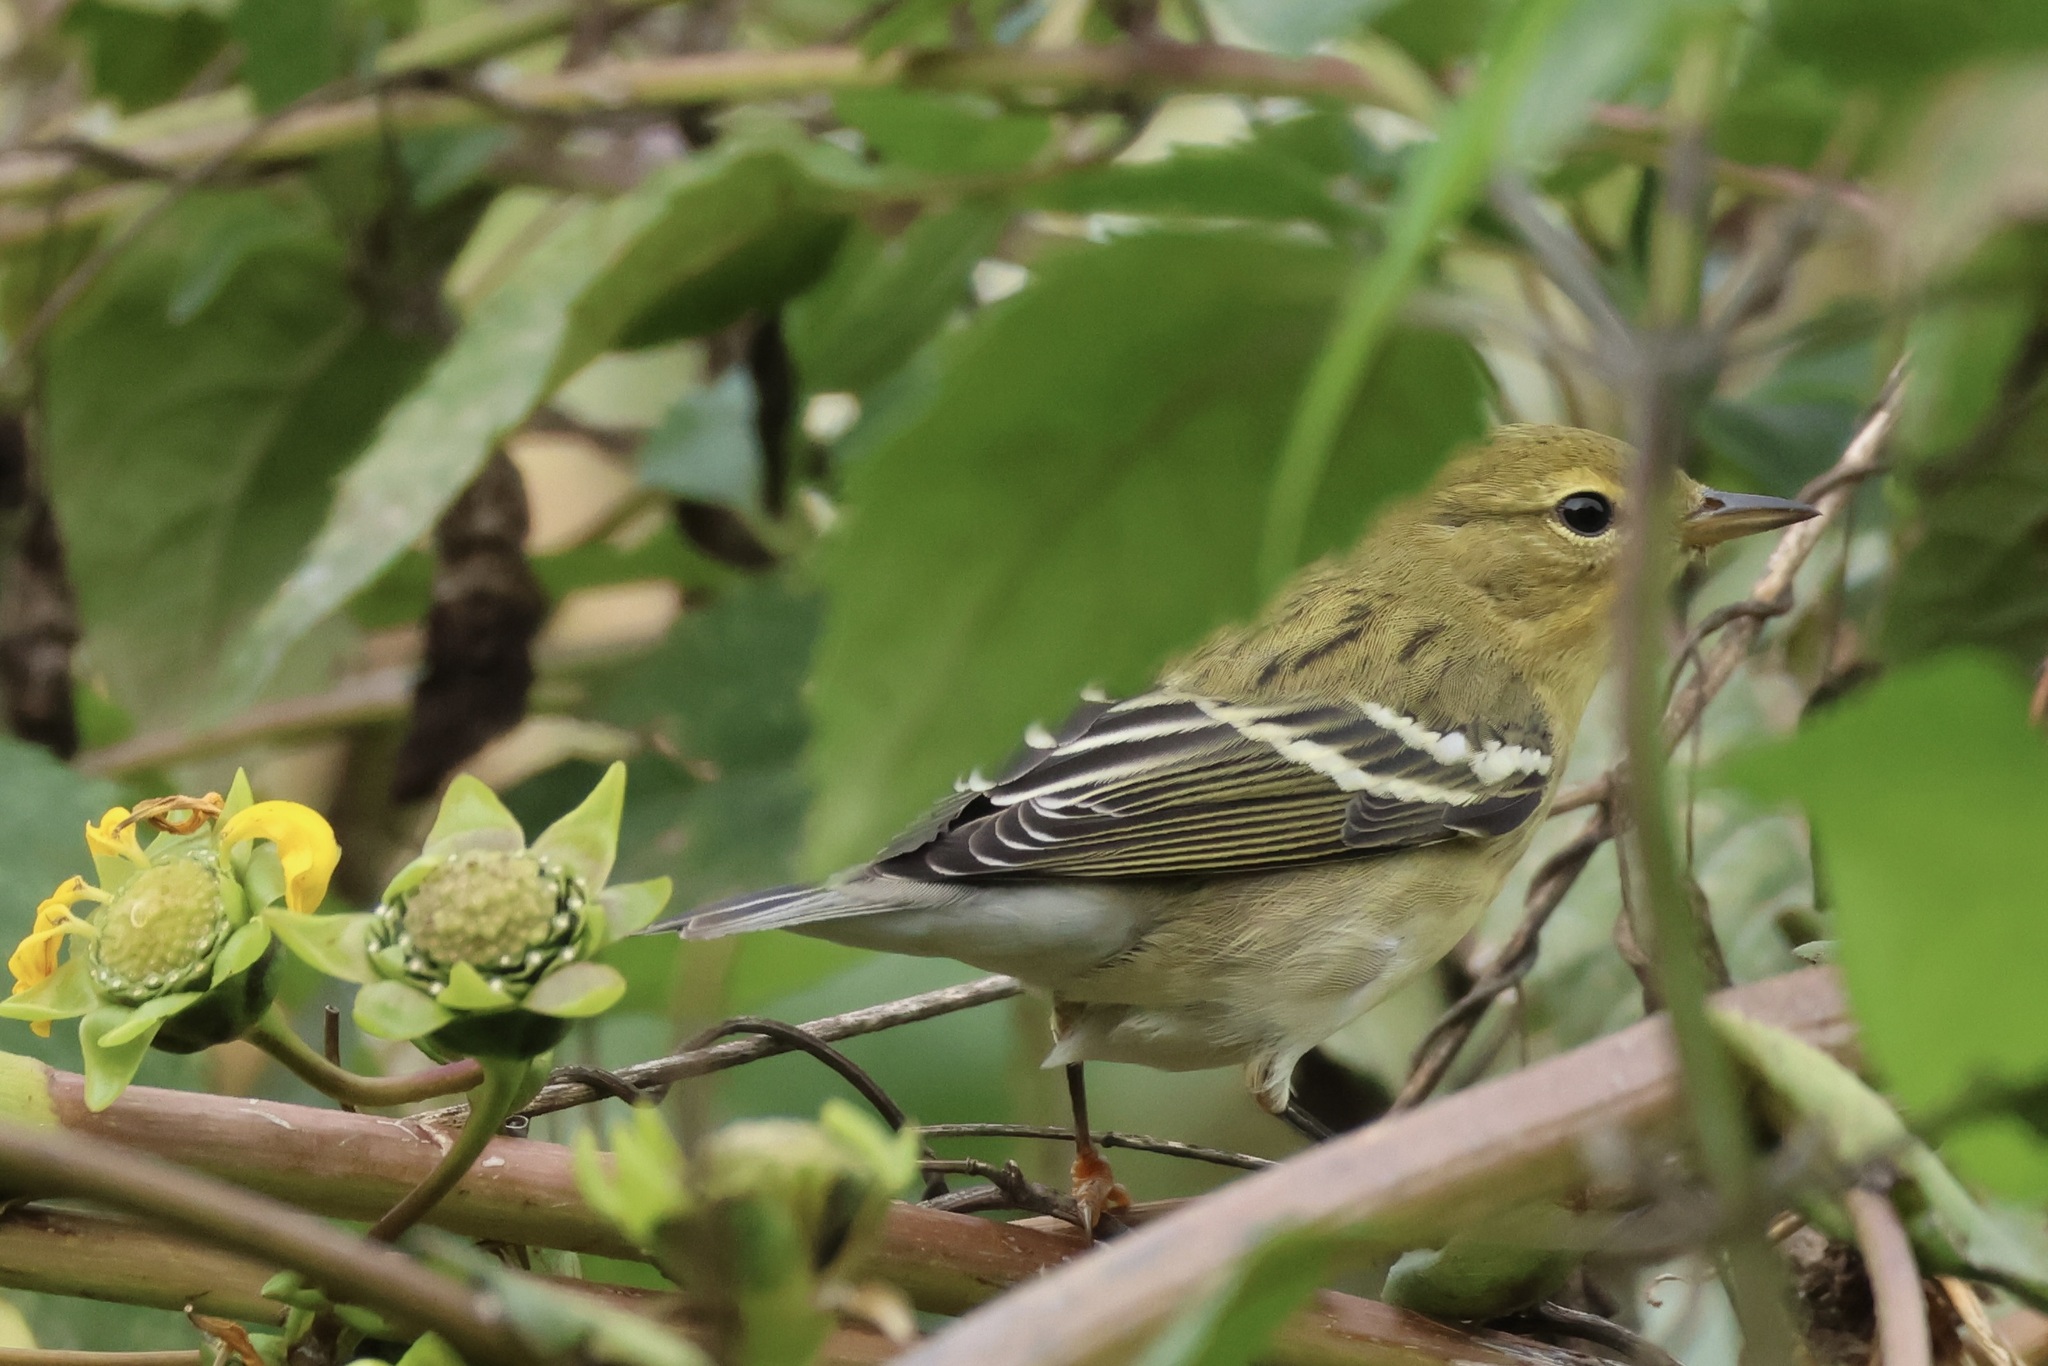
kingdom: Animalia
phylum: Chordata
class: Aves
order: Passeriformes
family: Parulidae
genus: Setophaga
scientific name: Setophaga striata
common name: Blackpoll warbler
